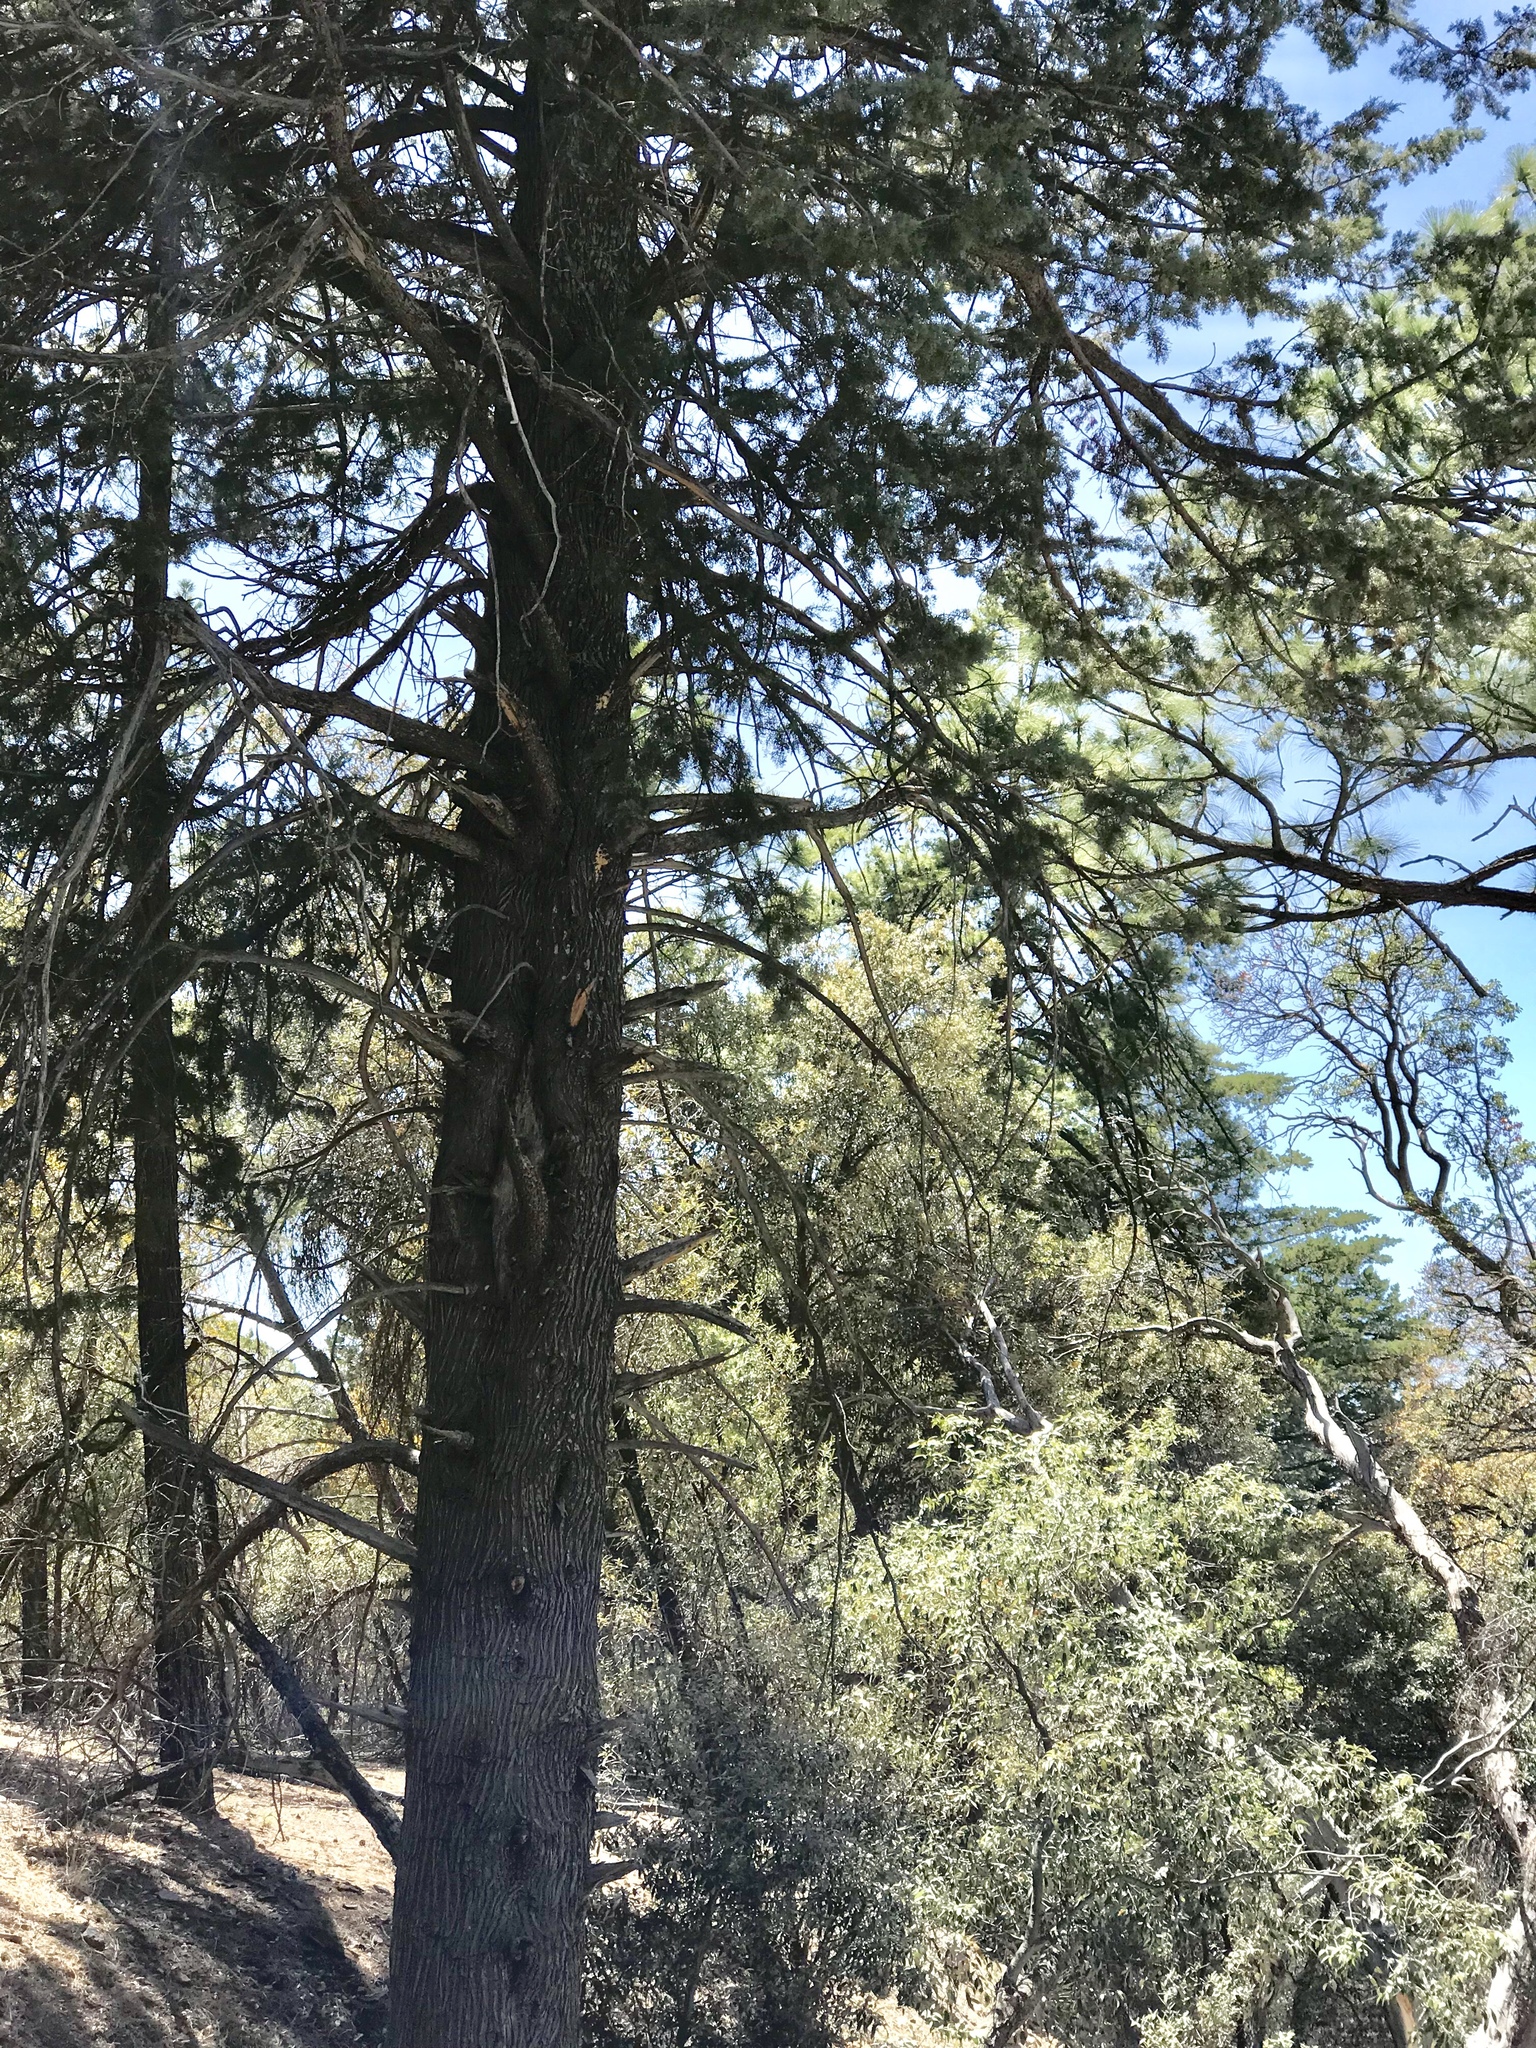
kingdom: Plantae
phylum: Tracheophyta
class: Pinopsida
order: Pinales
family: Cupressaceae
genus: Cupressus
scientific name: Cupressus arizonica
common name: Arizona cypress
